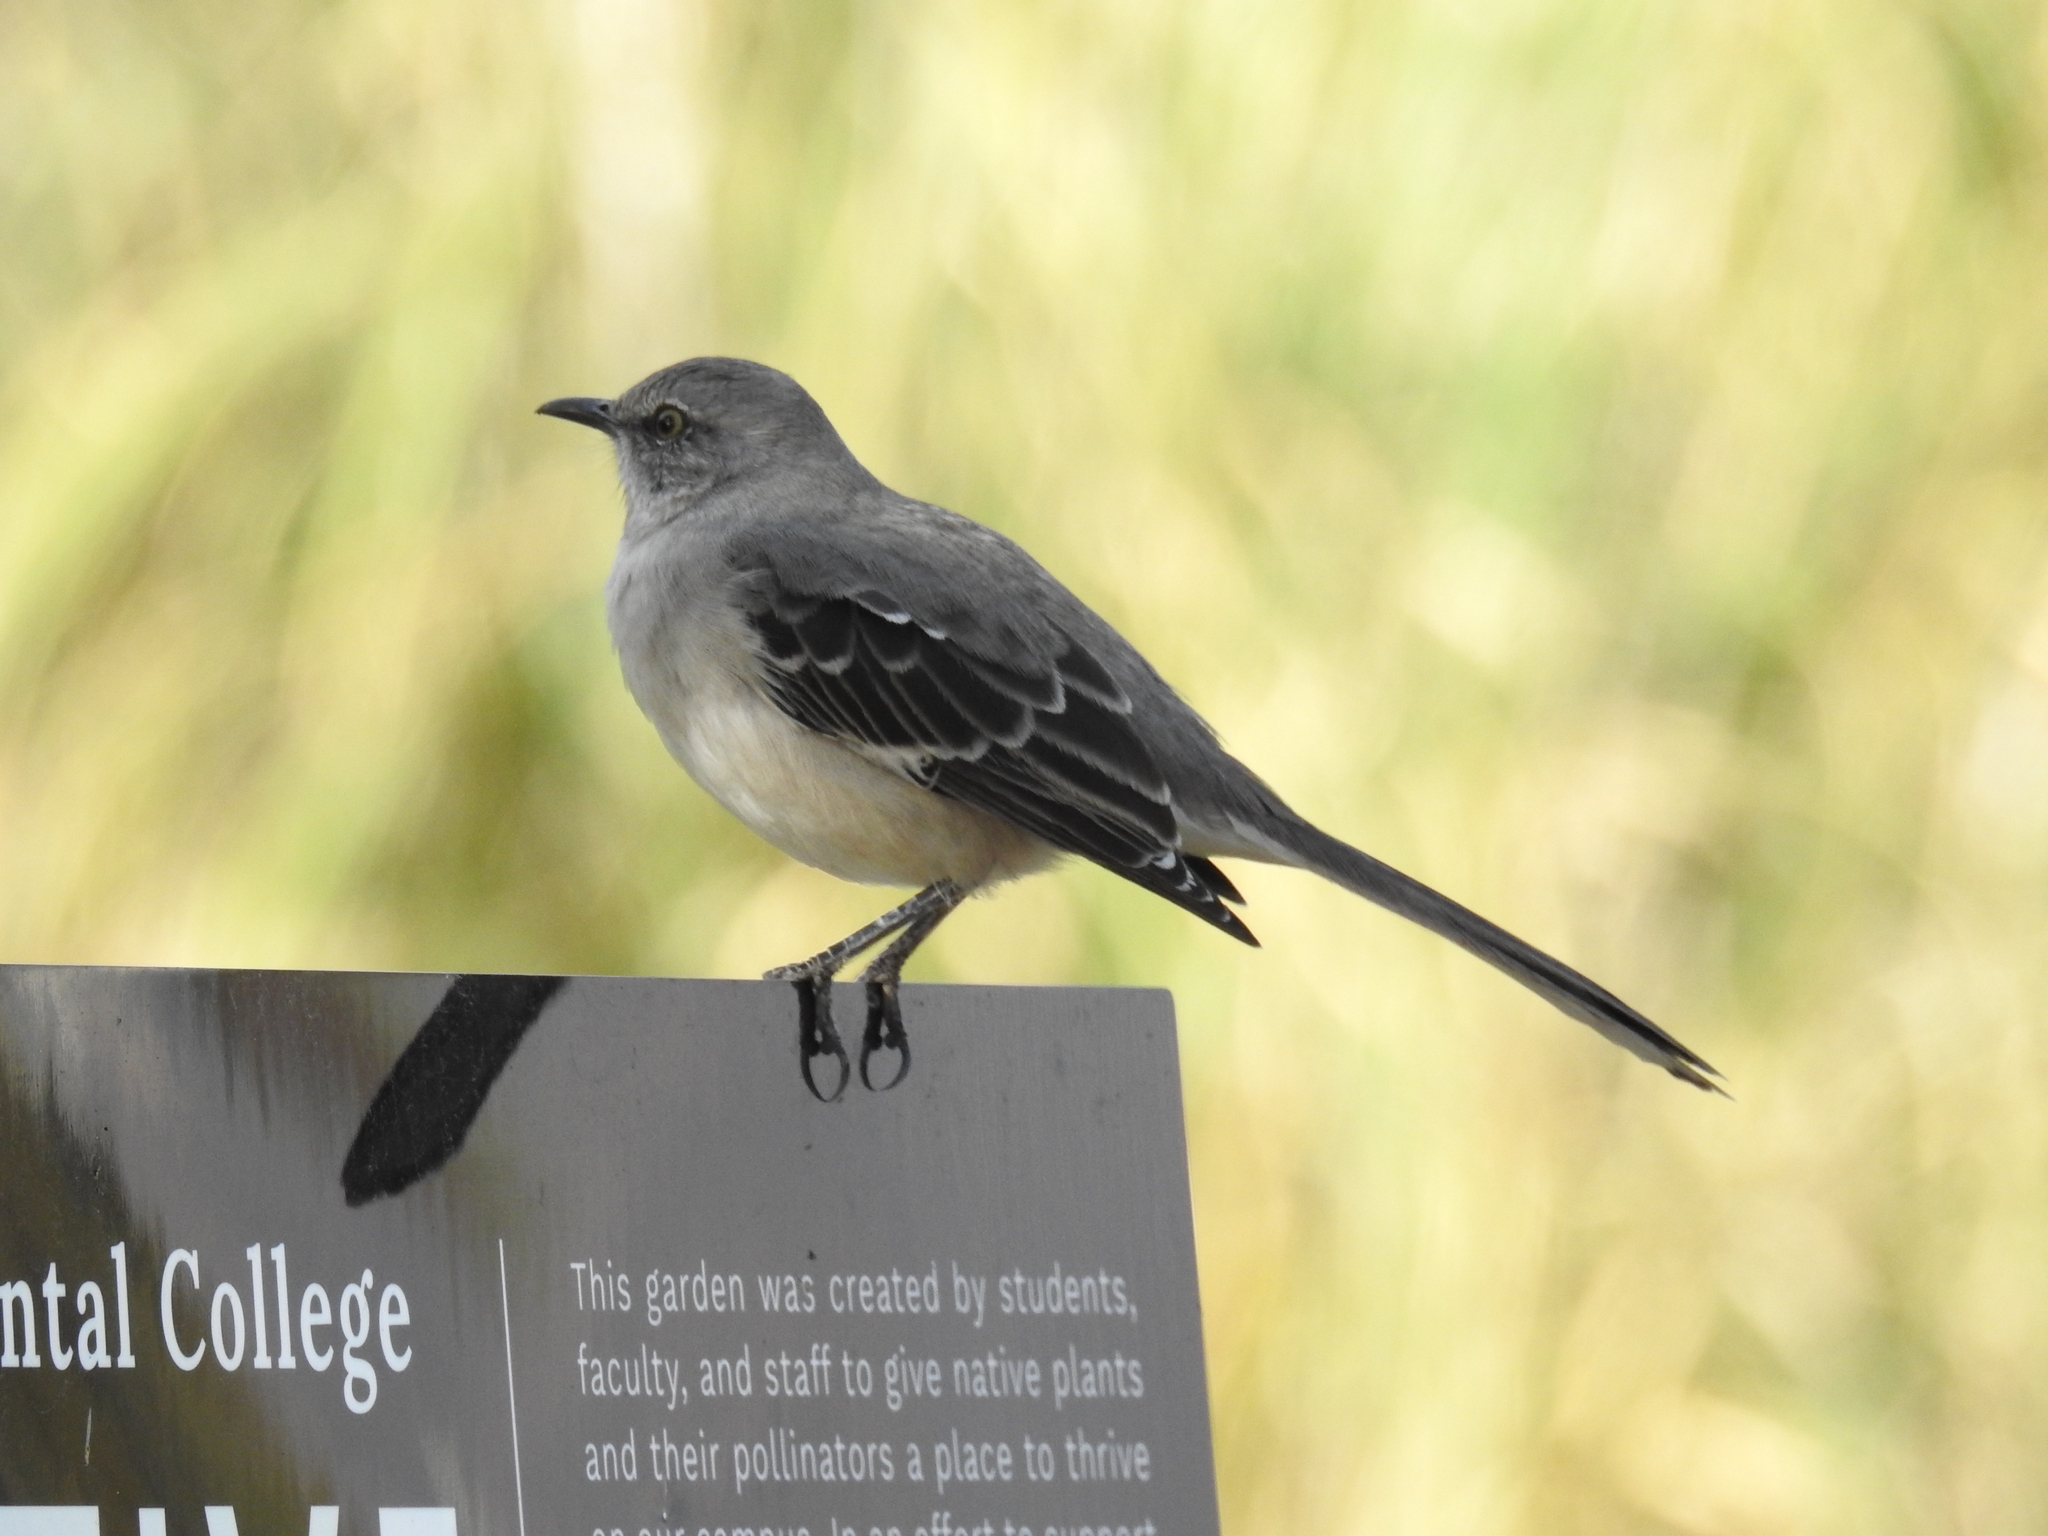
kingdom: Animalia
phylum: Chordata
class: Aves
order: Passeriformes
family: Mimidae
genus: Mimus
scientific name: Mimus polyglottos
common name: Northern mockingbird
